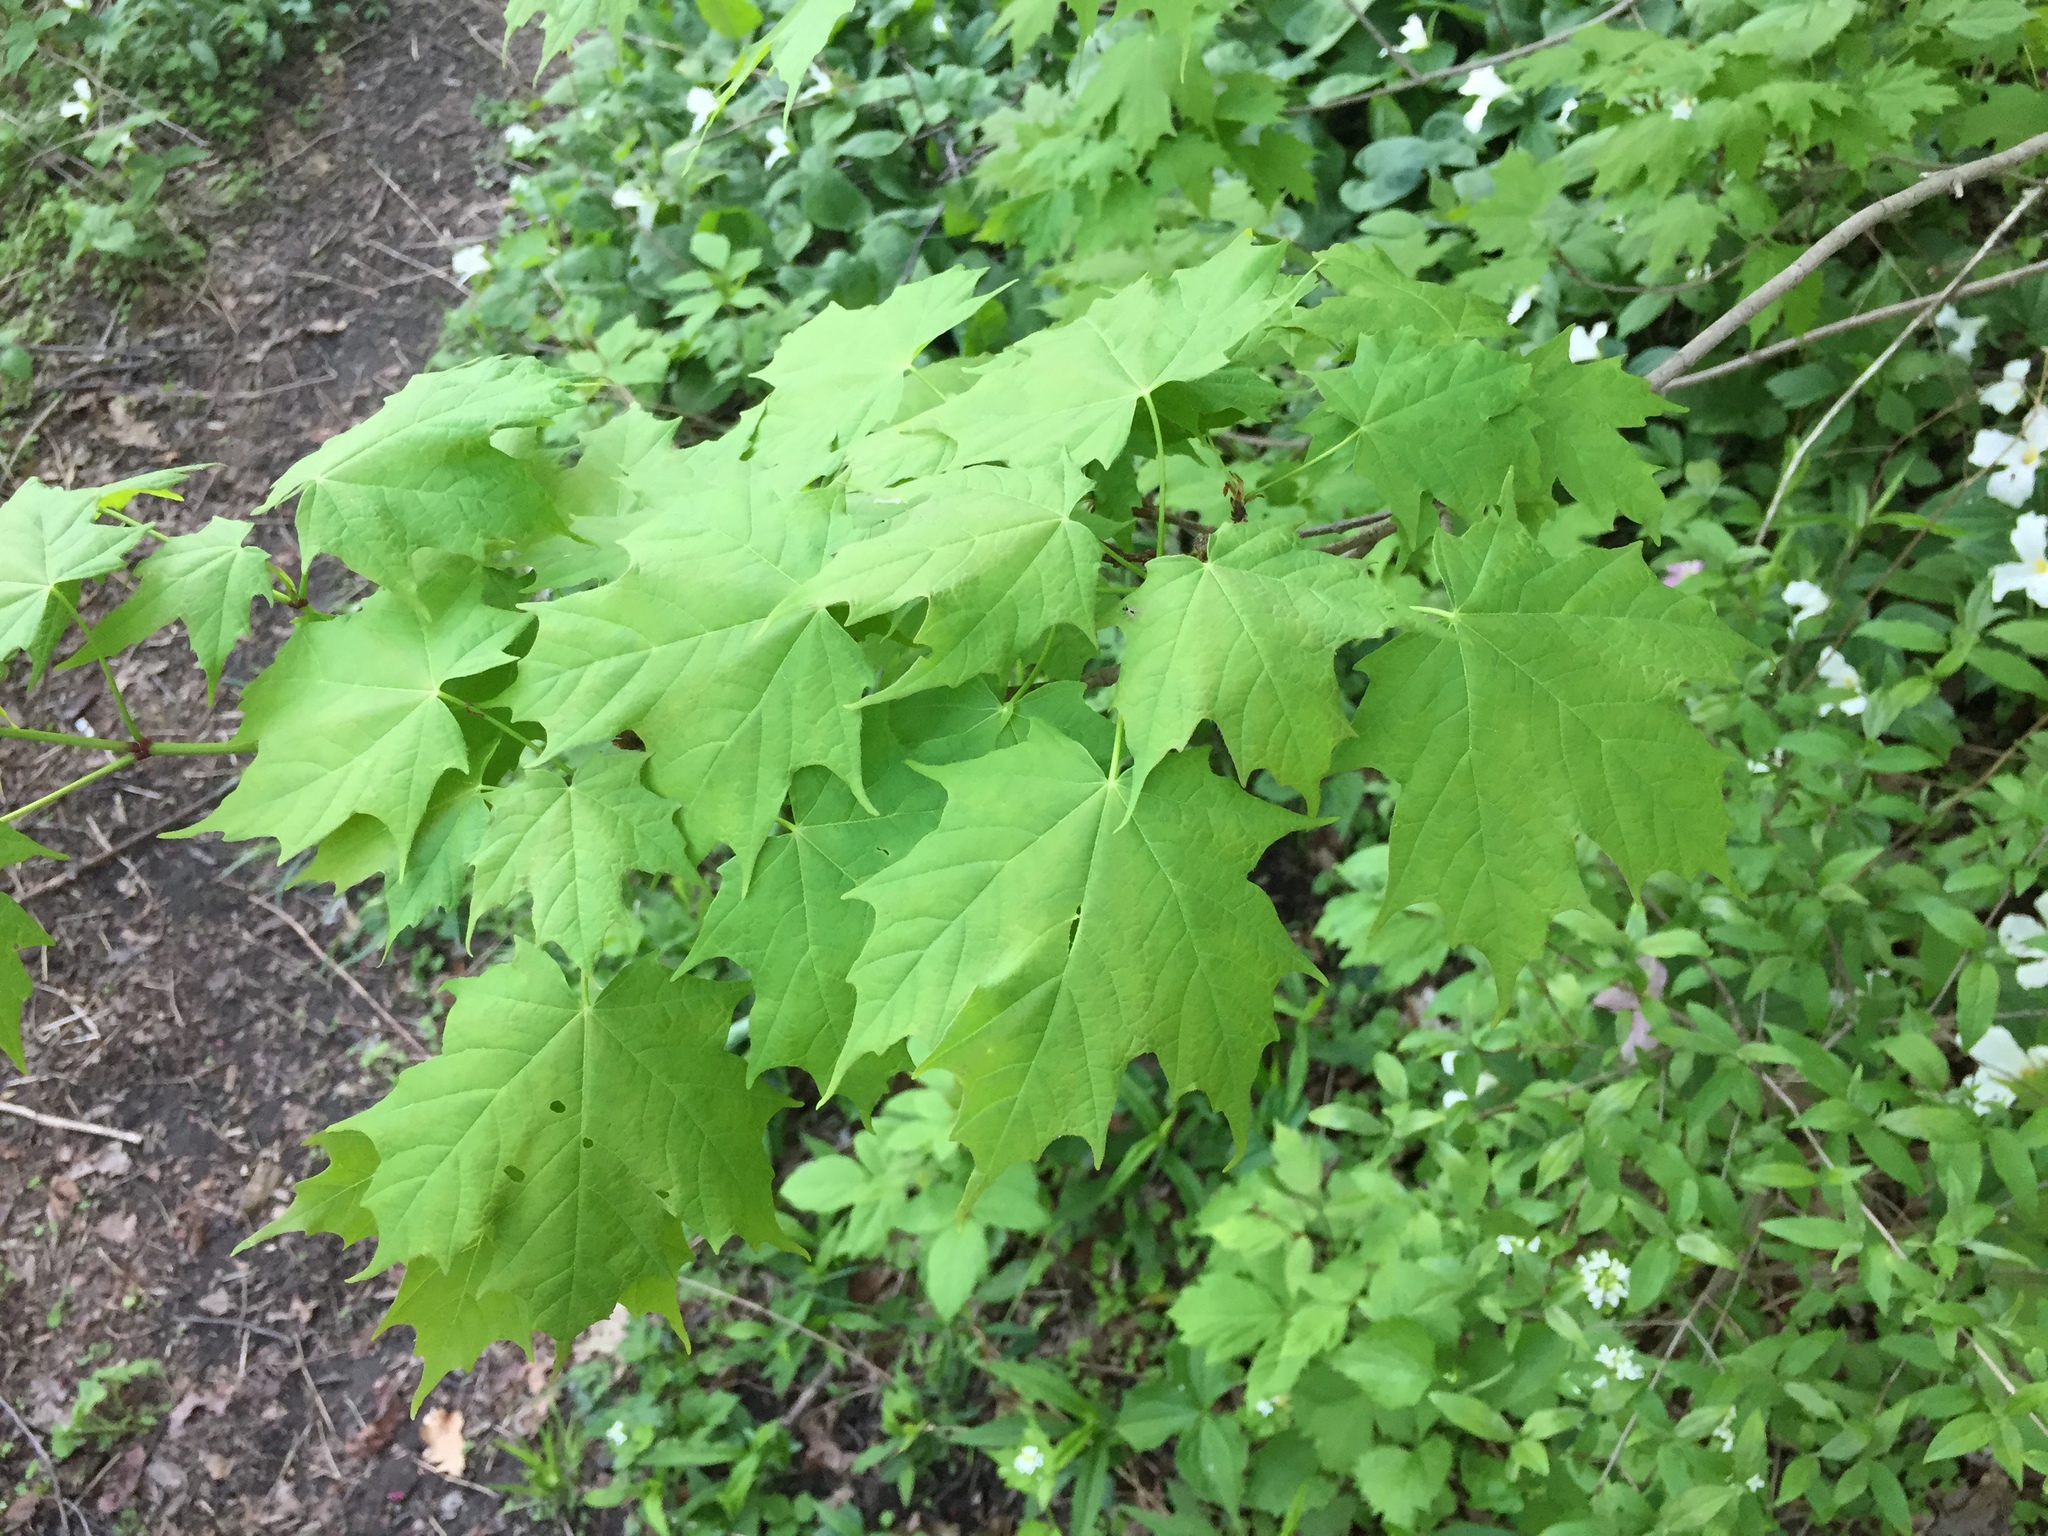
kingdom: Plantae
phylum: Tracheophyta
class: Magnoliopsida
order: Sapindales
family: Sapindaceae
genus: Acer
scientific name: Acer saccharum
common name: Sugar maple
